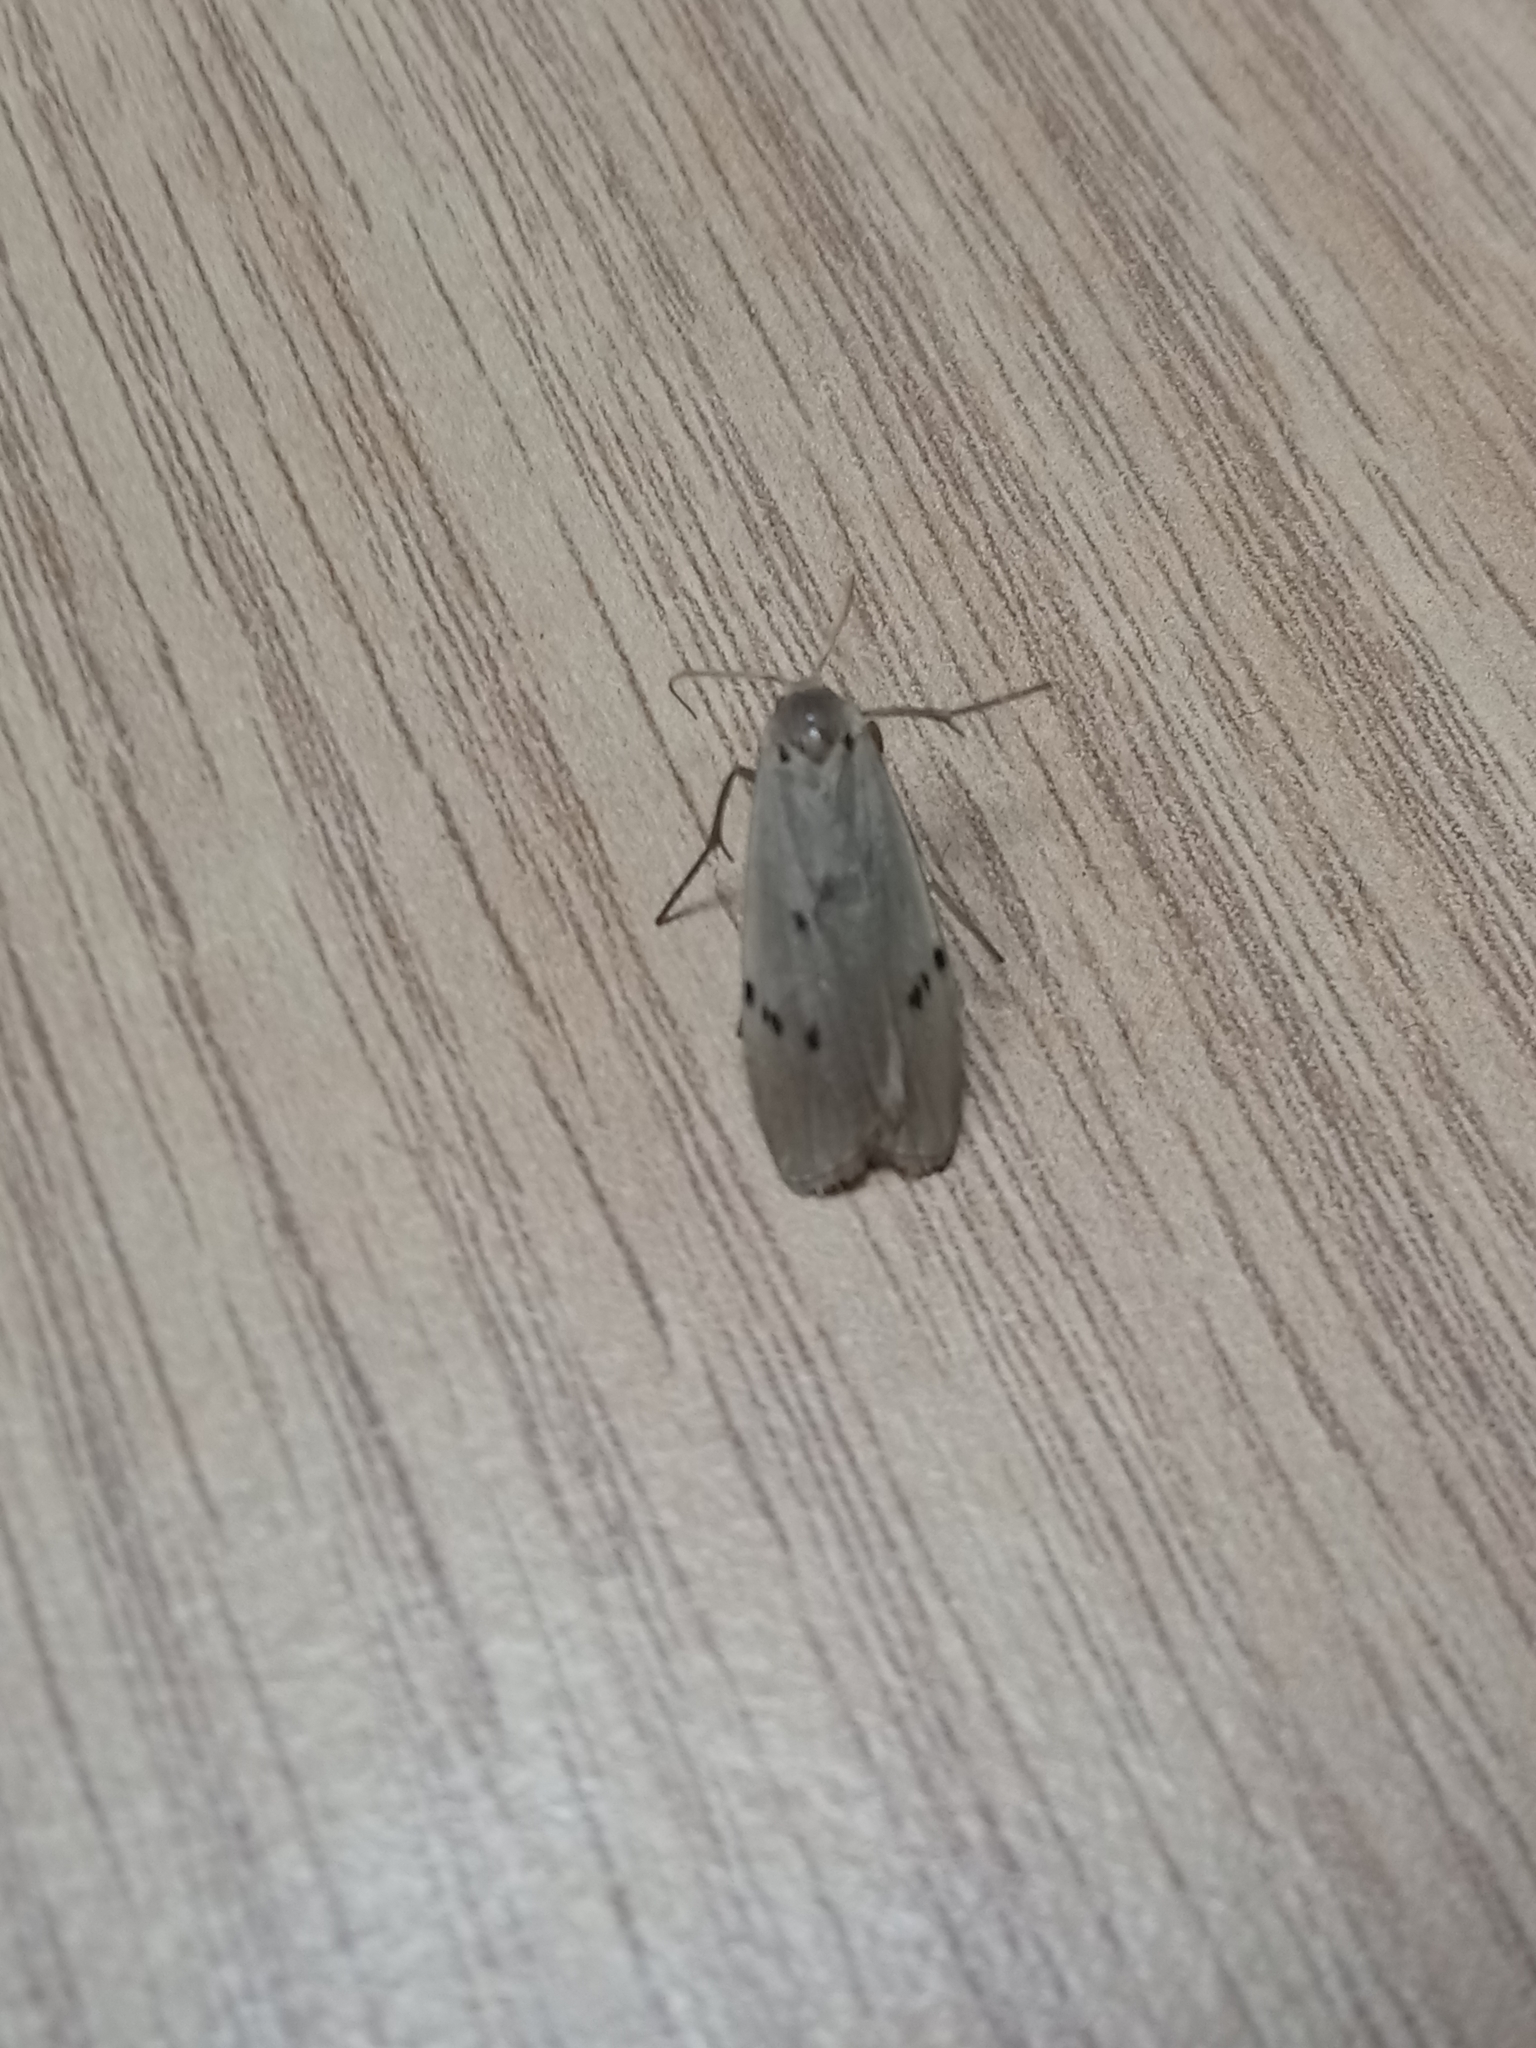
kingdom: Animalia
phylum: Arthropoda
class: Insecta
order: Lepidoptera
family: Erebidae
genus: Pelosia
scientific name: Pelosia muscerda
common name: Dotted footman
